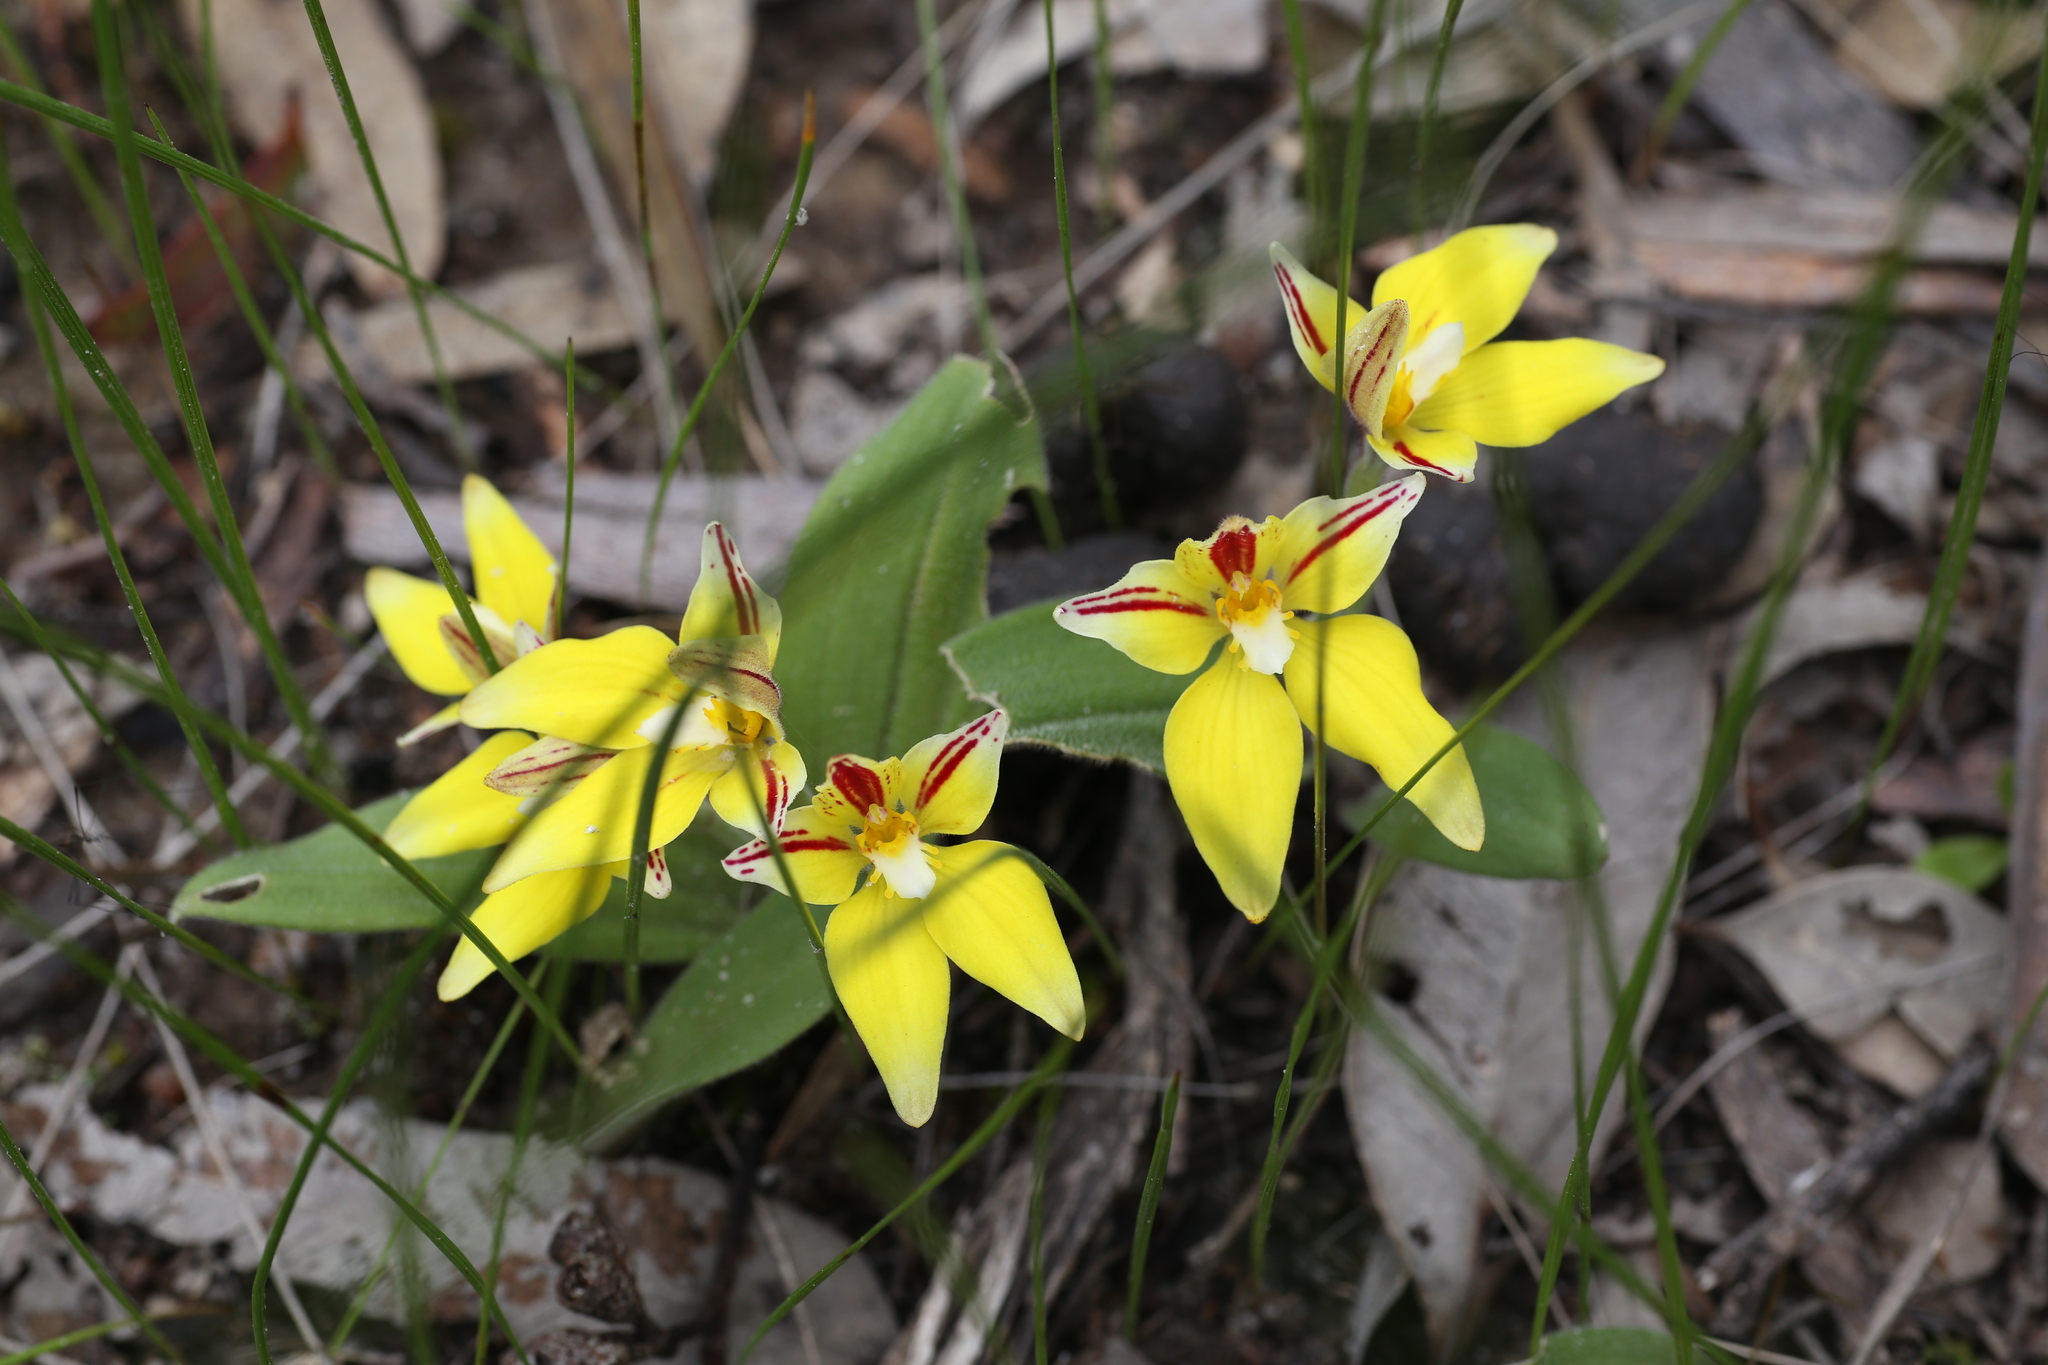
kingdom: Plantae
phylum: Tracheophyta
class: Liliopsida
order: Asparagales
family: Orchidaceae
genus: Caladenia
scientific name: Caladenia flava
